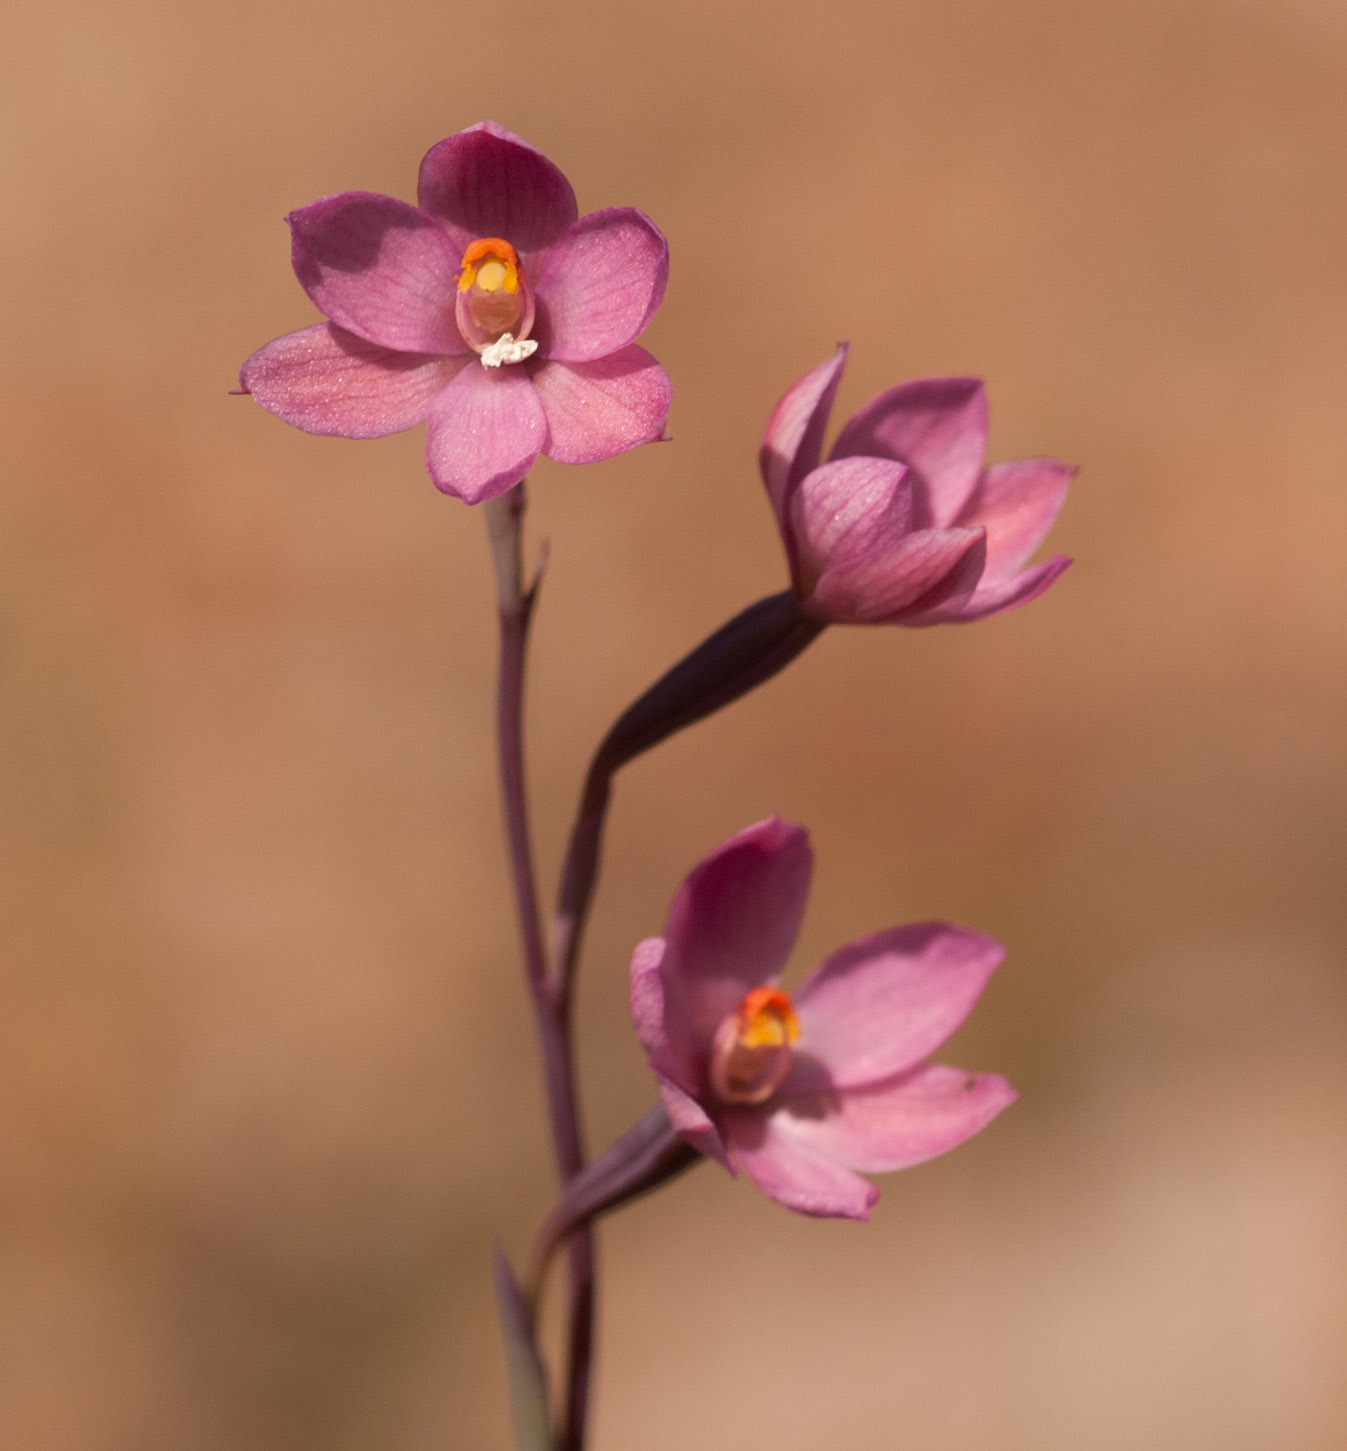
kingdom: Plantae
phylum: Tracheophyta
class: Liliopsida
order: Asparagales
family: Orchidaceae
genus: Thelymitra
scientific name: Thelymitra rubra
